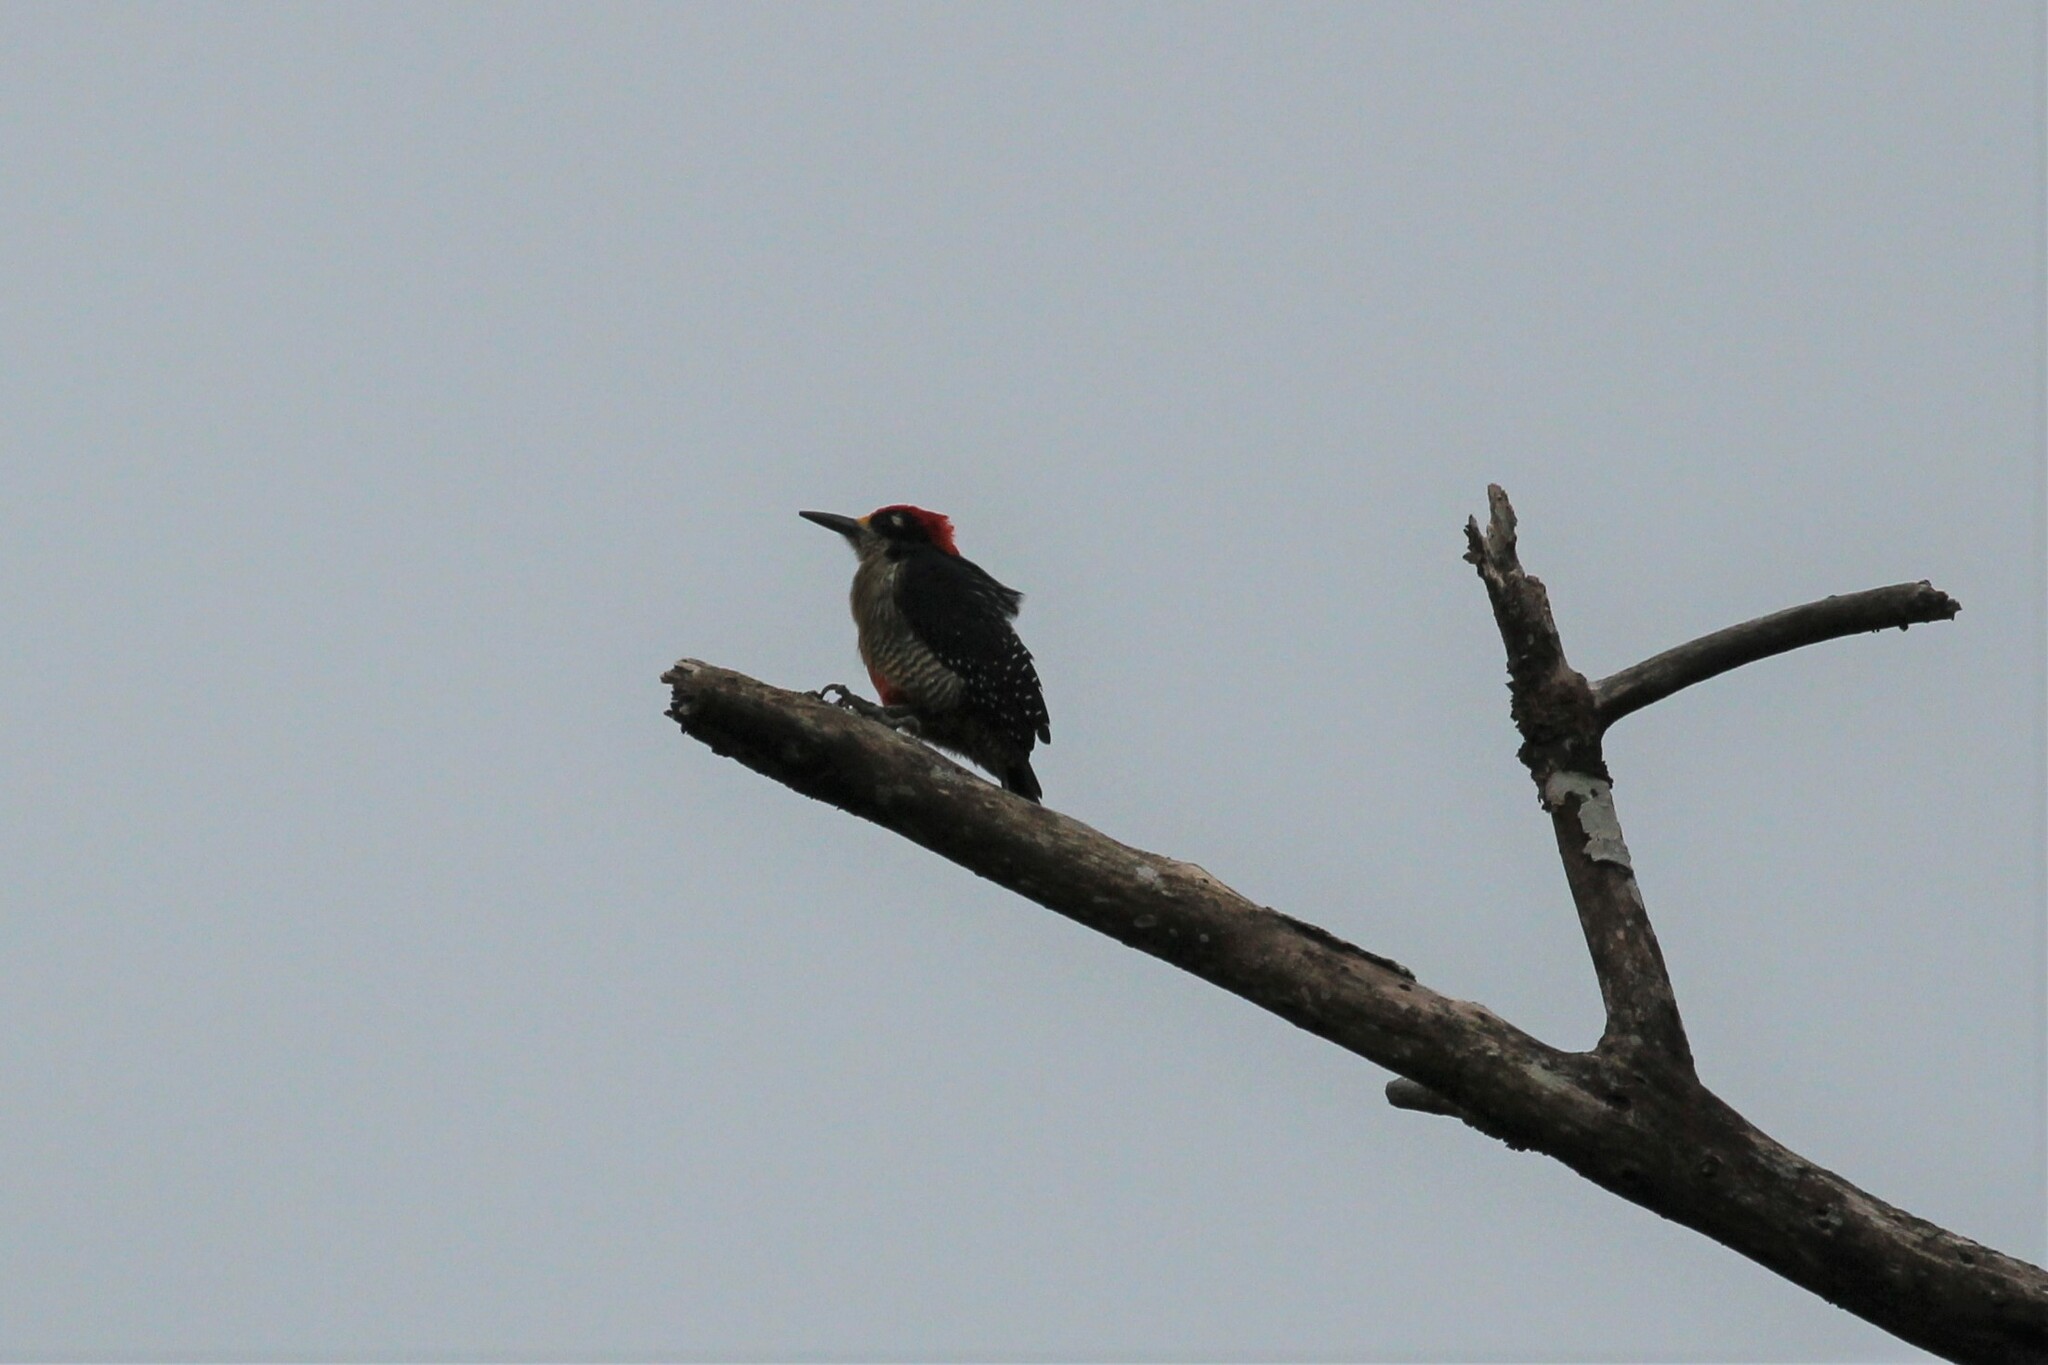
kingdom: Animalia
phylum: Chordata
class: Aves
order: Piciformes
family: Picidae
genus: Melanerpes
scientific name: Melanerpes pucherani
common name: Black-cheeked woodpecker
